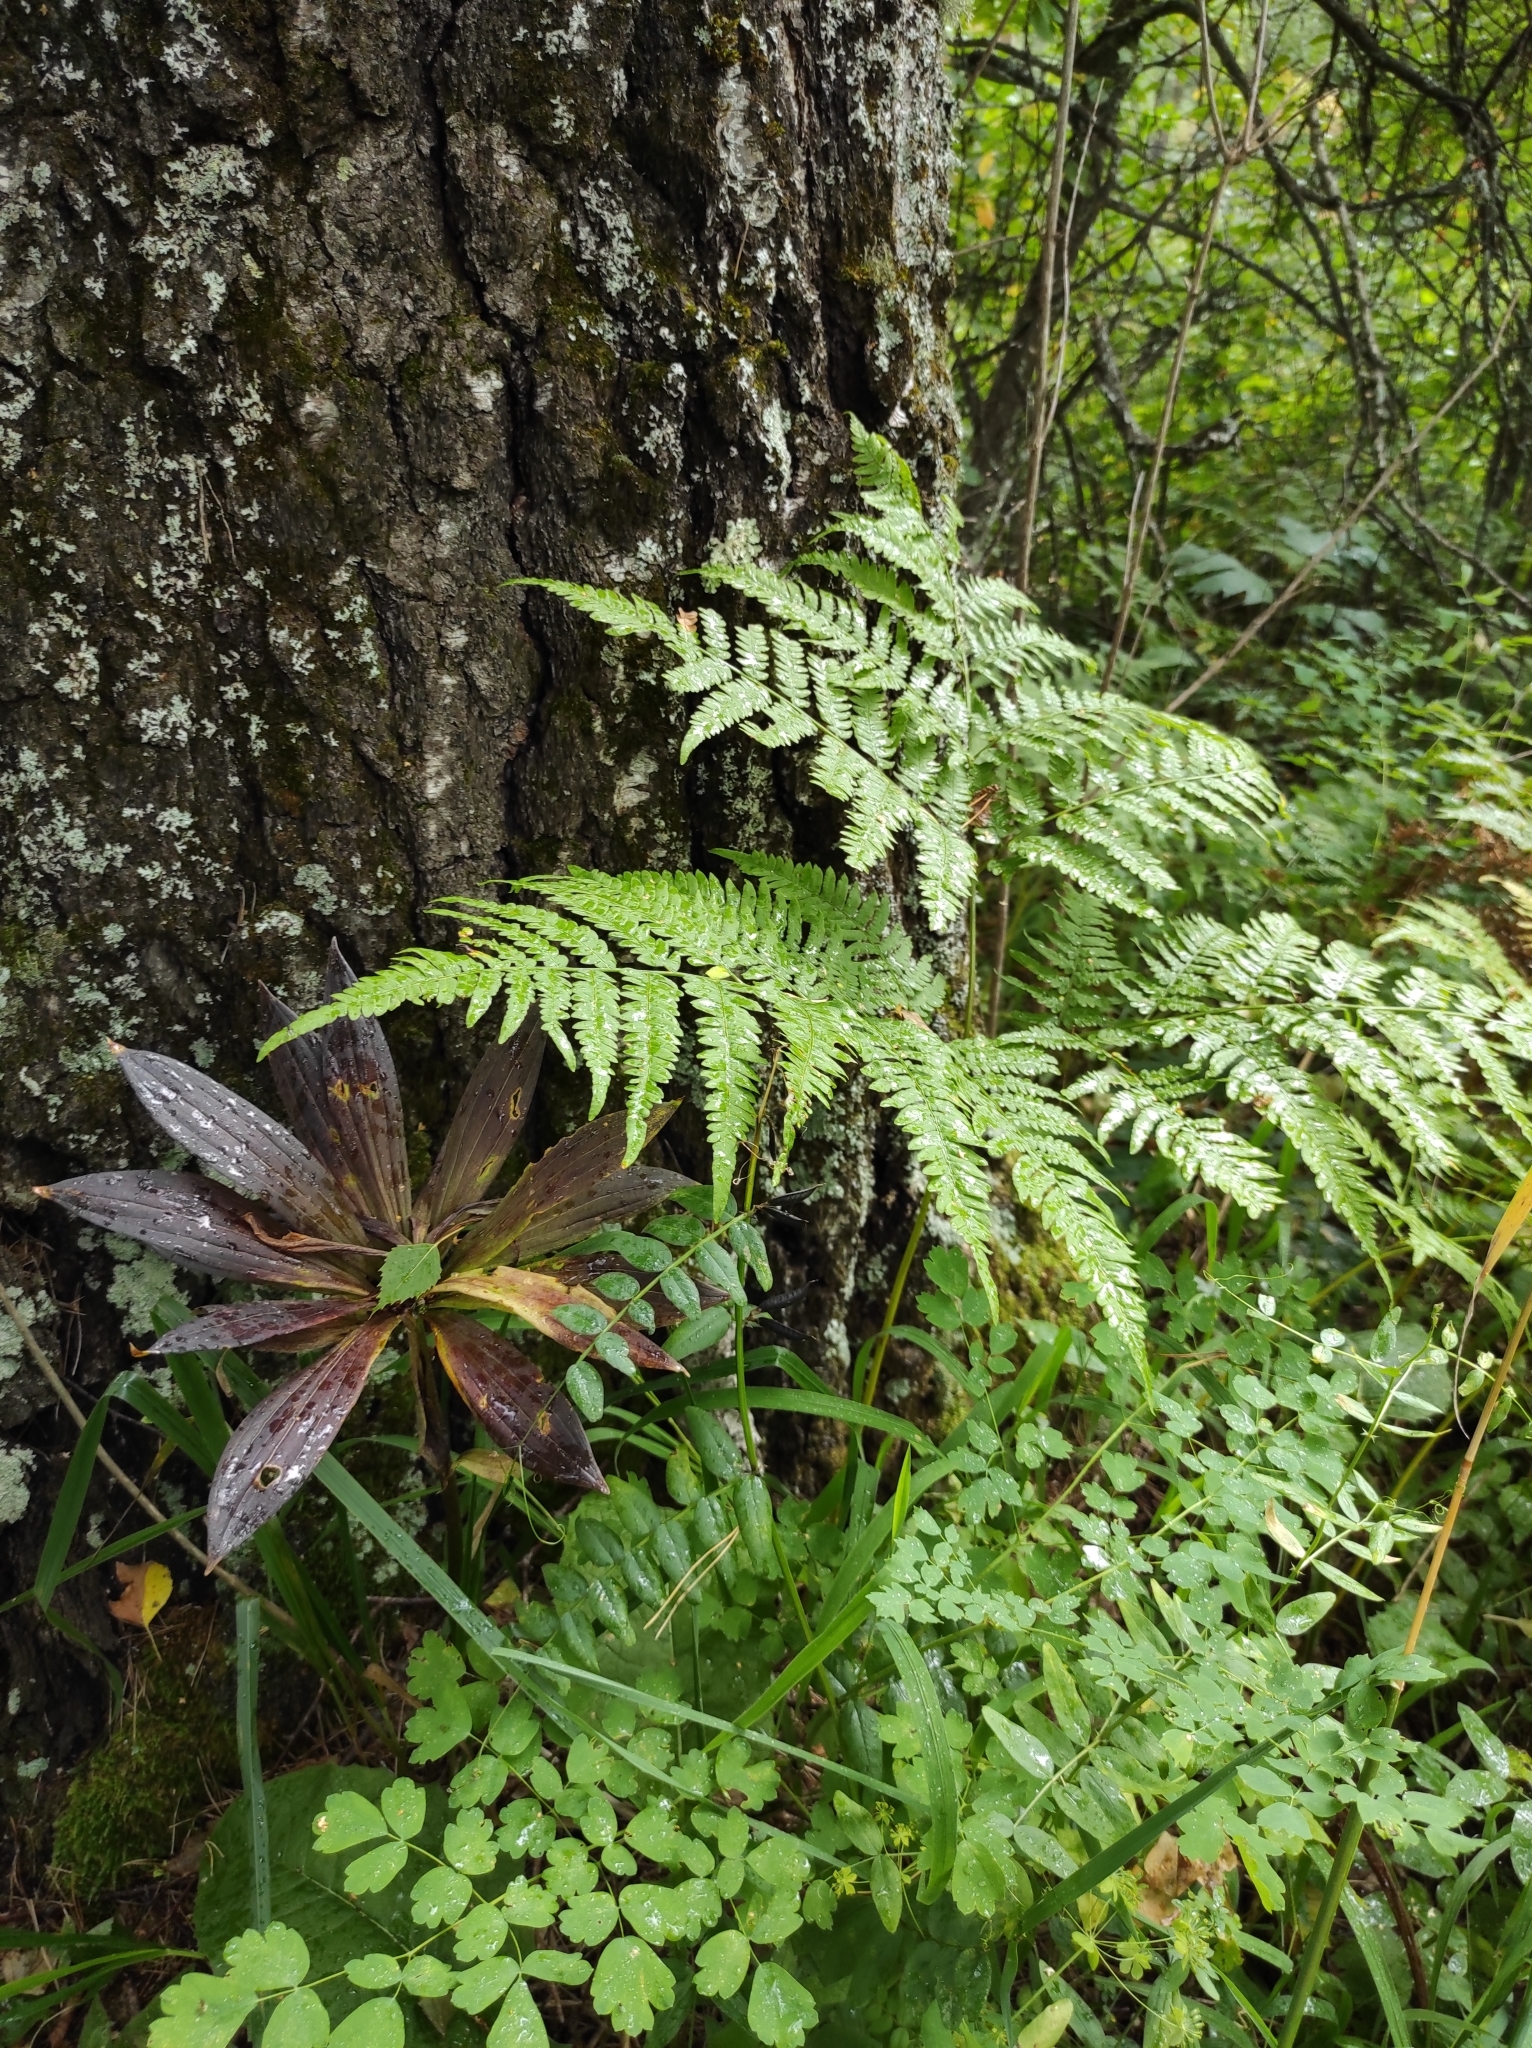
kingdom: Plantae
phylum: Tracheophyta
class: Polypodiopsida
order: Polypodiales
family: Dennstaedtiaceae
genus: Pteridium
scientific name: Pteridium aquilinum
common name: Bracken
